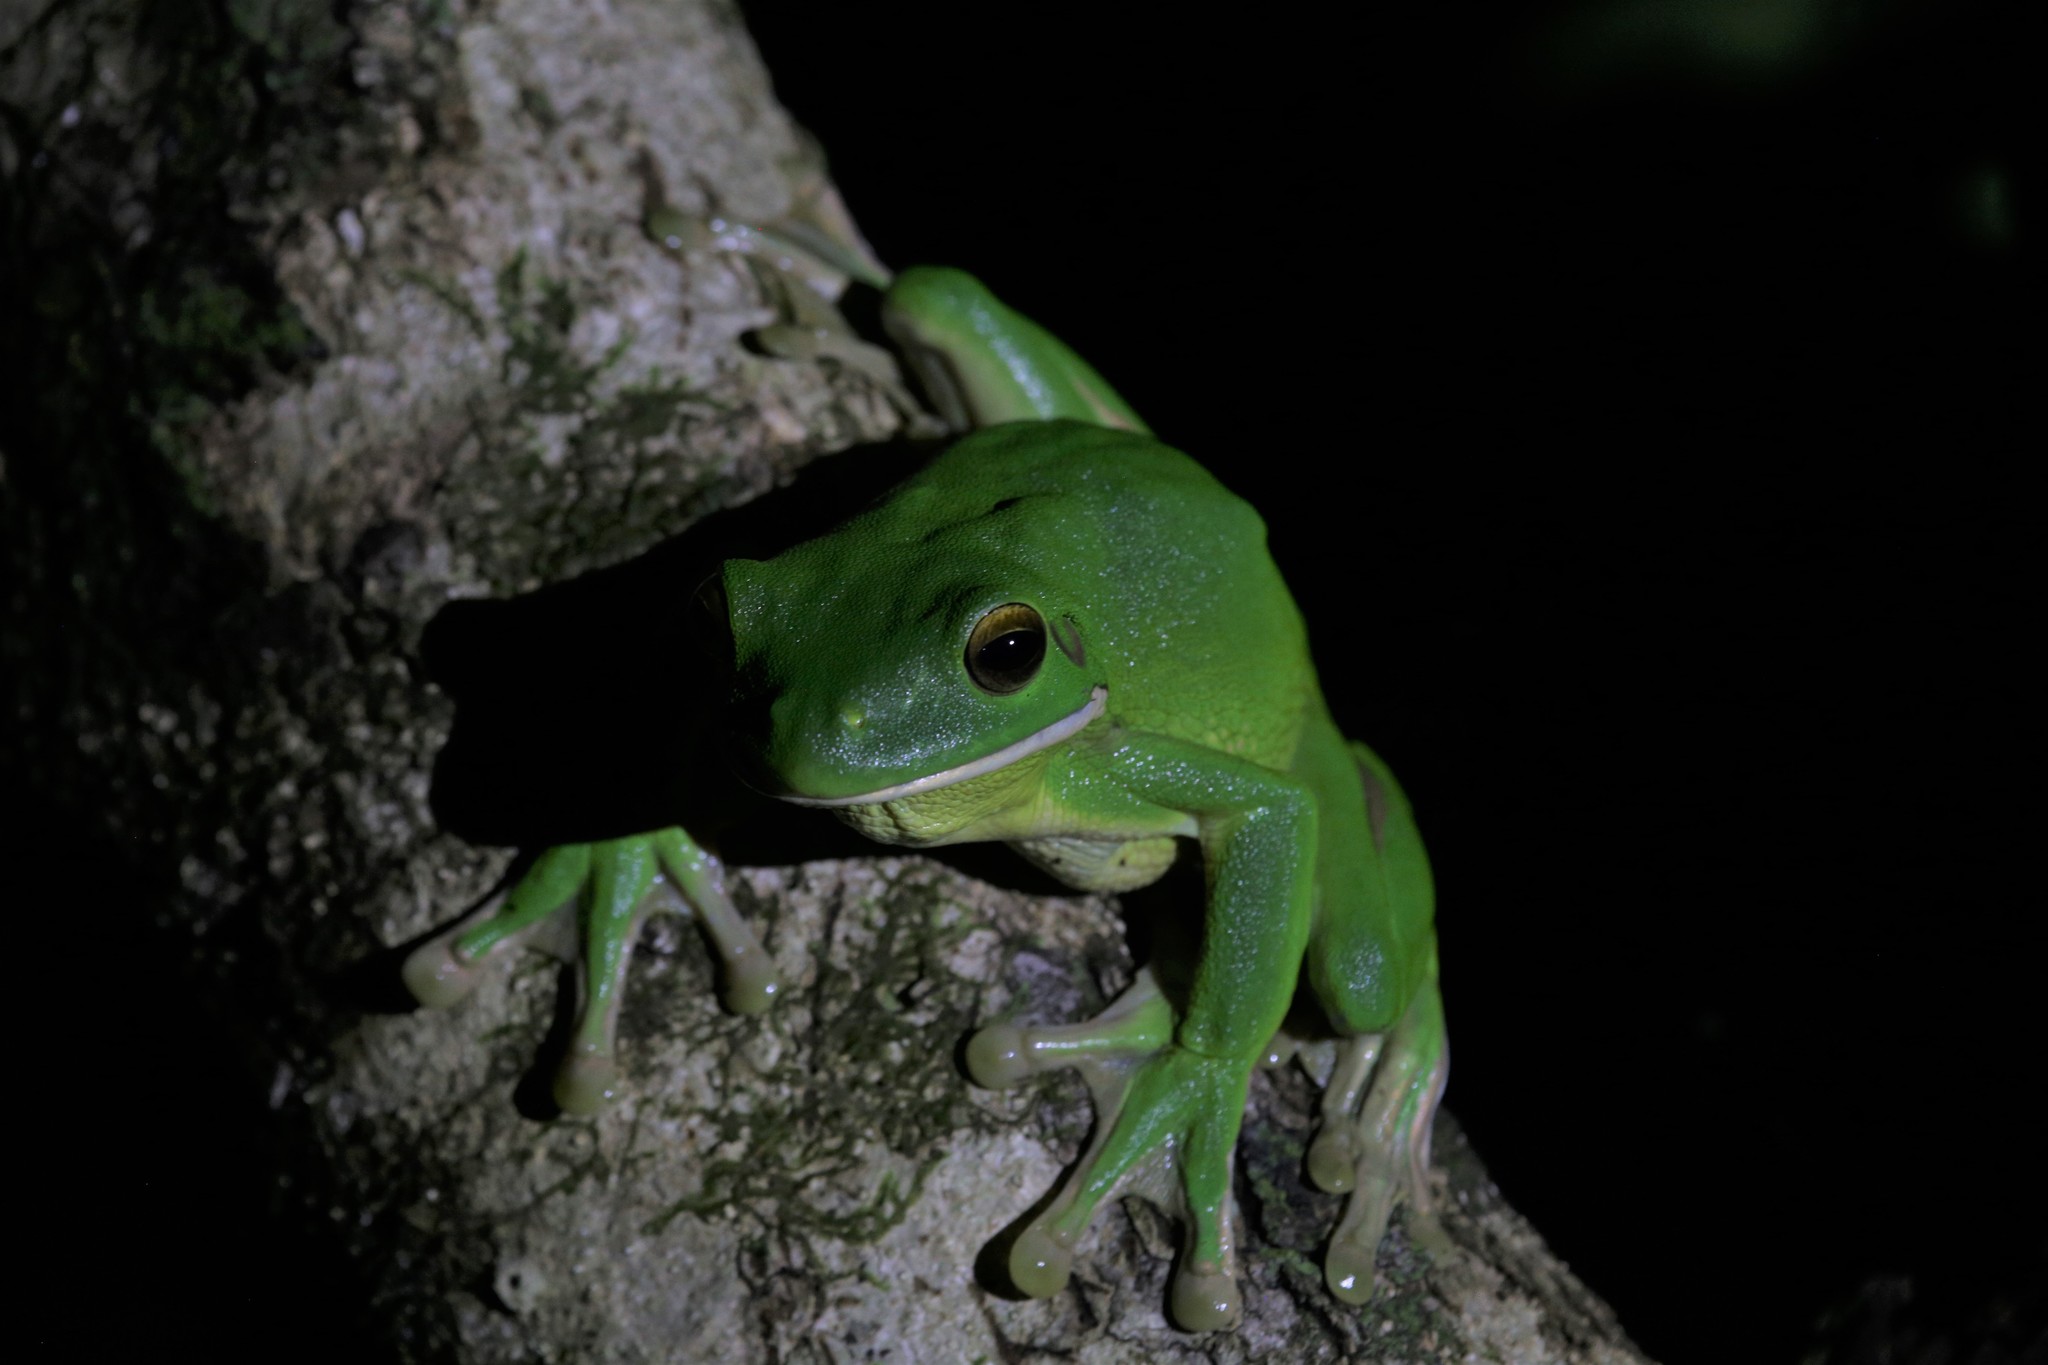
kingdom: Animalia
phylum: Chordata
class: Amphibia
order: Anura
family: Pelodryadidae
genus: Nyctimystes
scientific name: Nyctimystes infrafrenatus
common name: Australian giant treefrog
